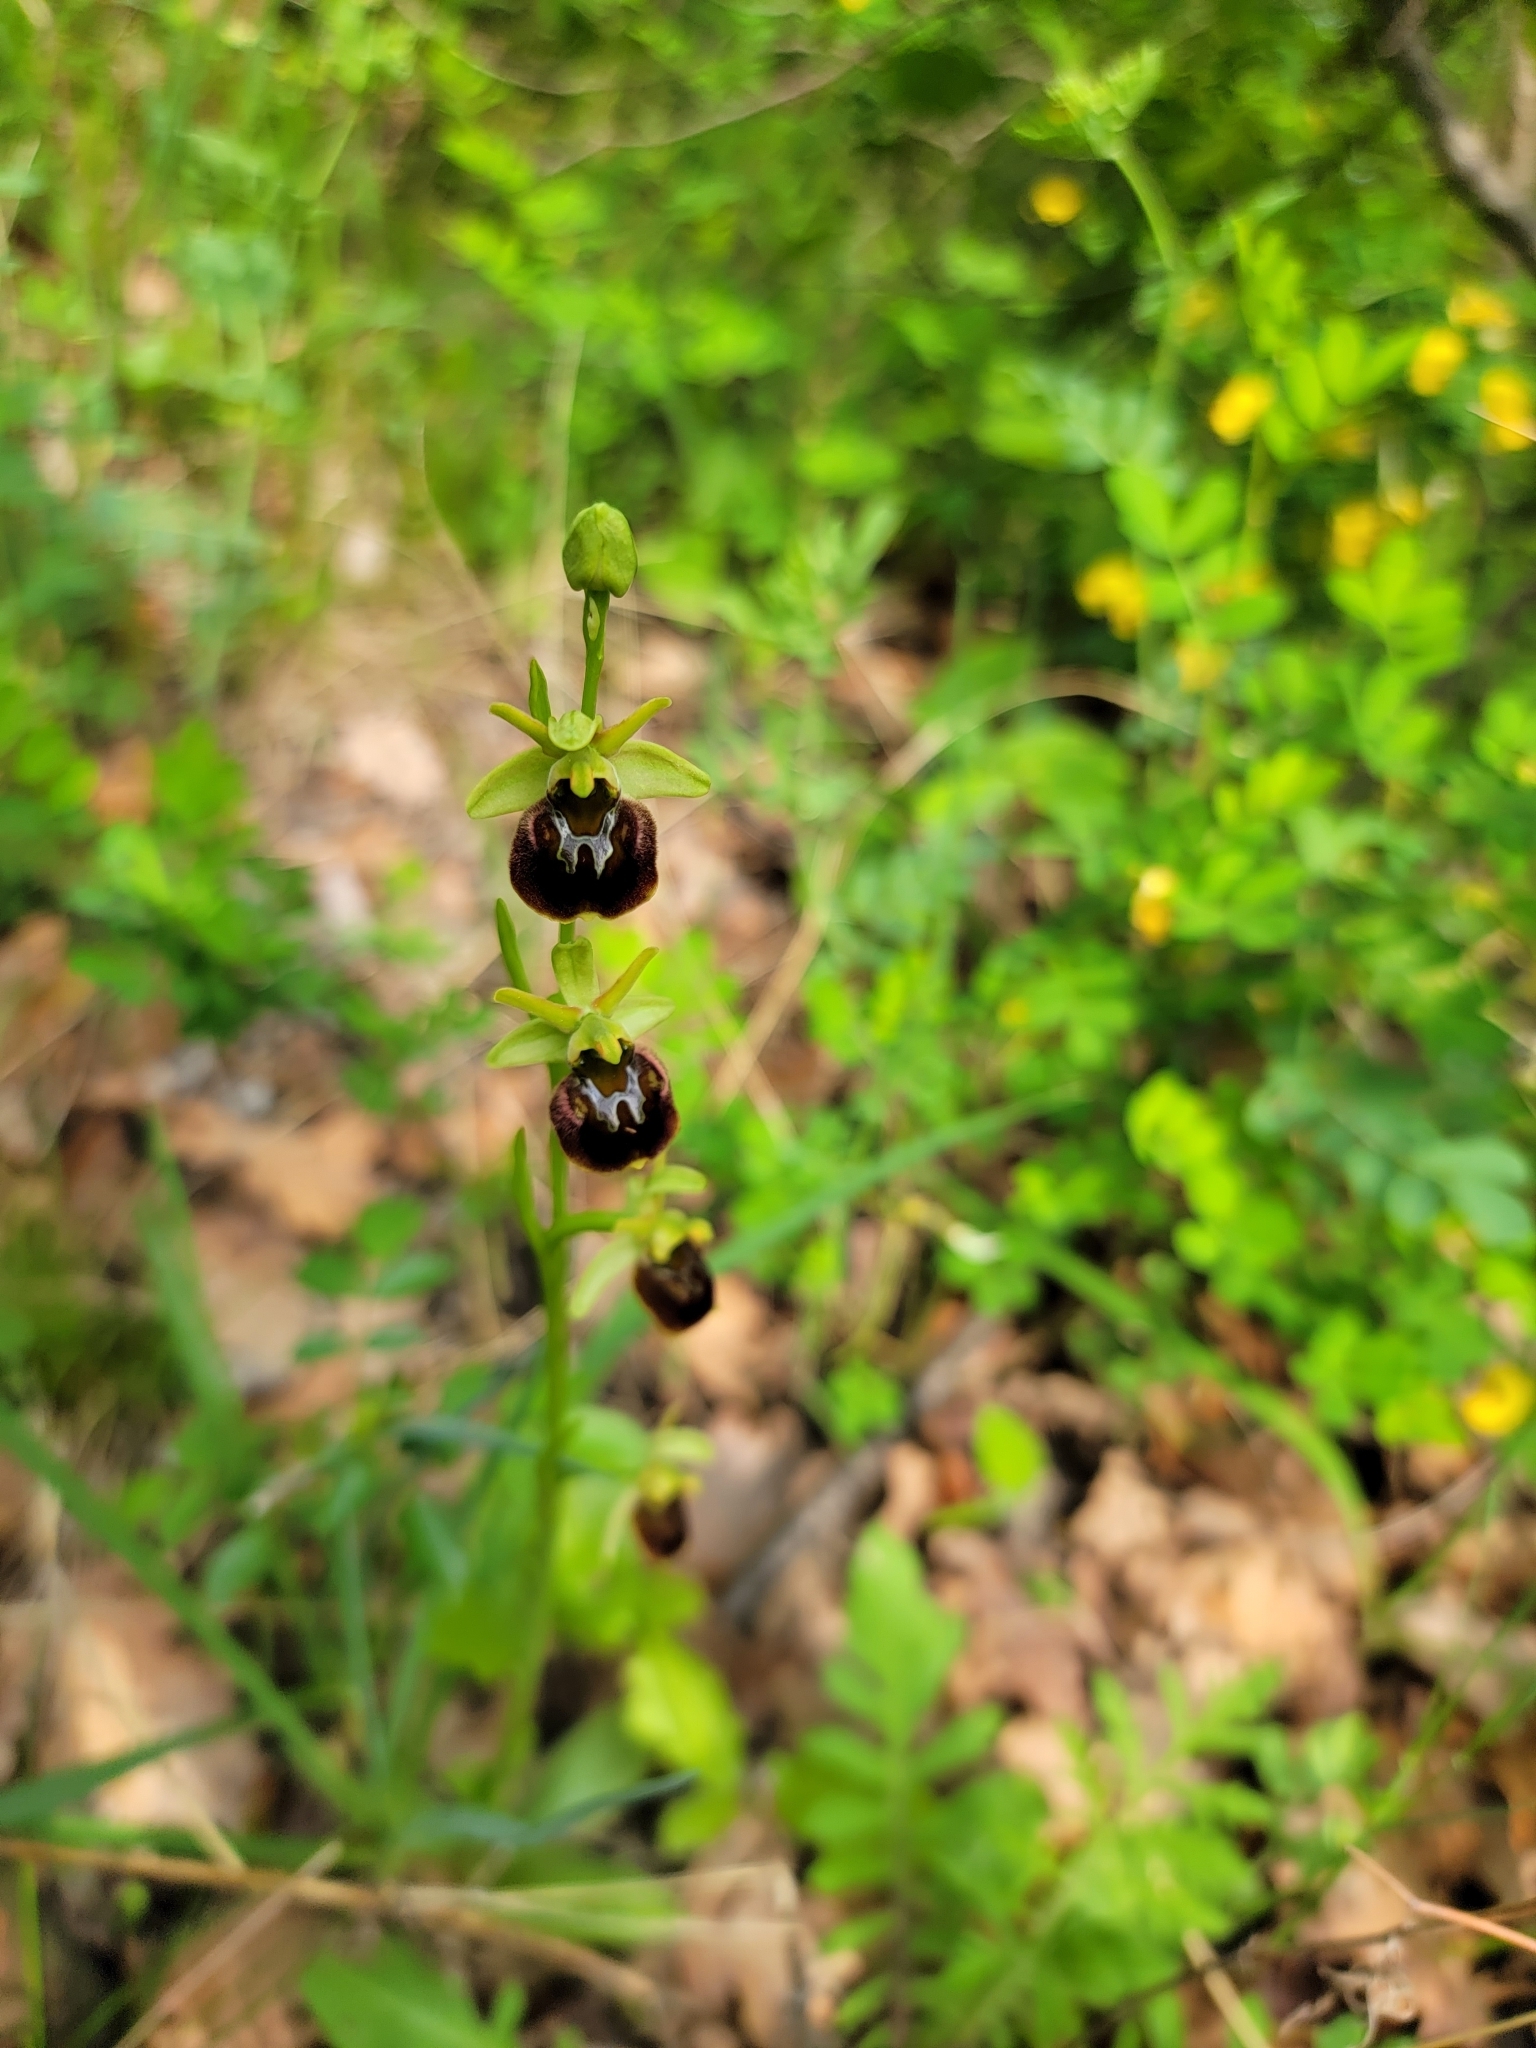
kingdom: Plantae
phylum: Tracheophyta
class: Liliopsida
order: Asparagales
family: Orchidaceae
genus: Ophrys
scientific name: Ophrys sphegodes
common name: Early spider-orchid
